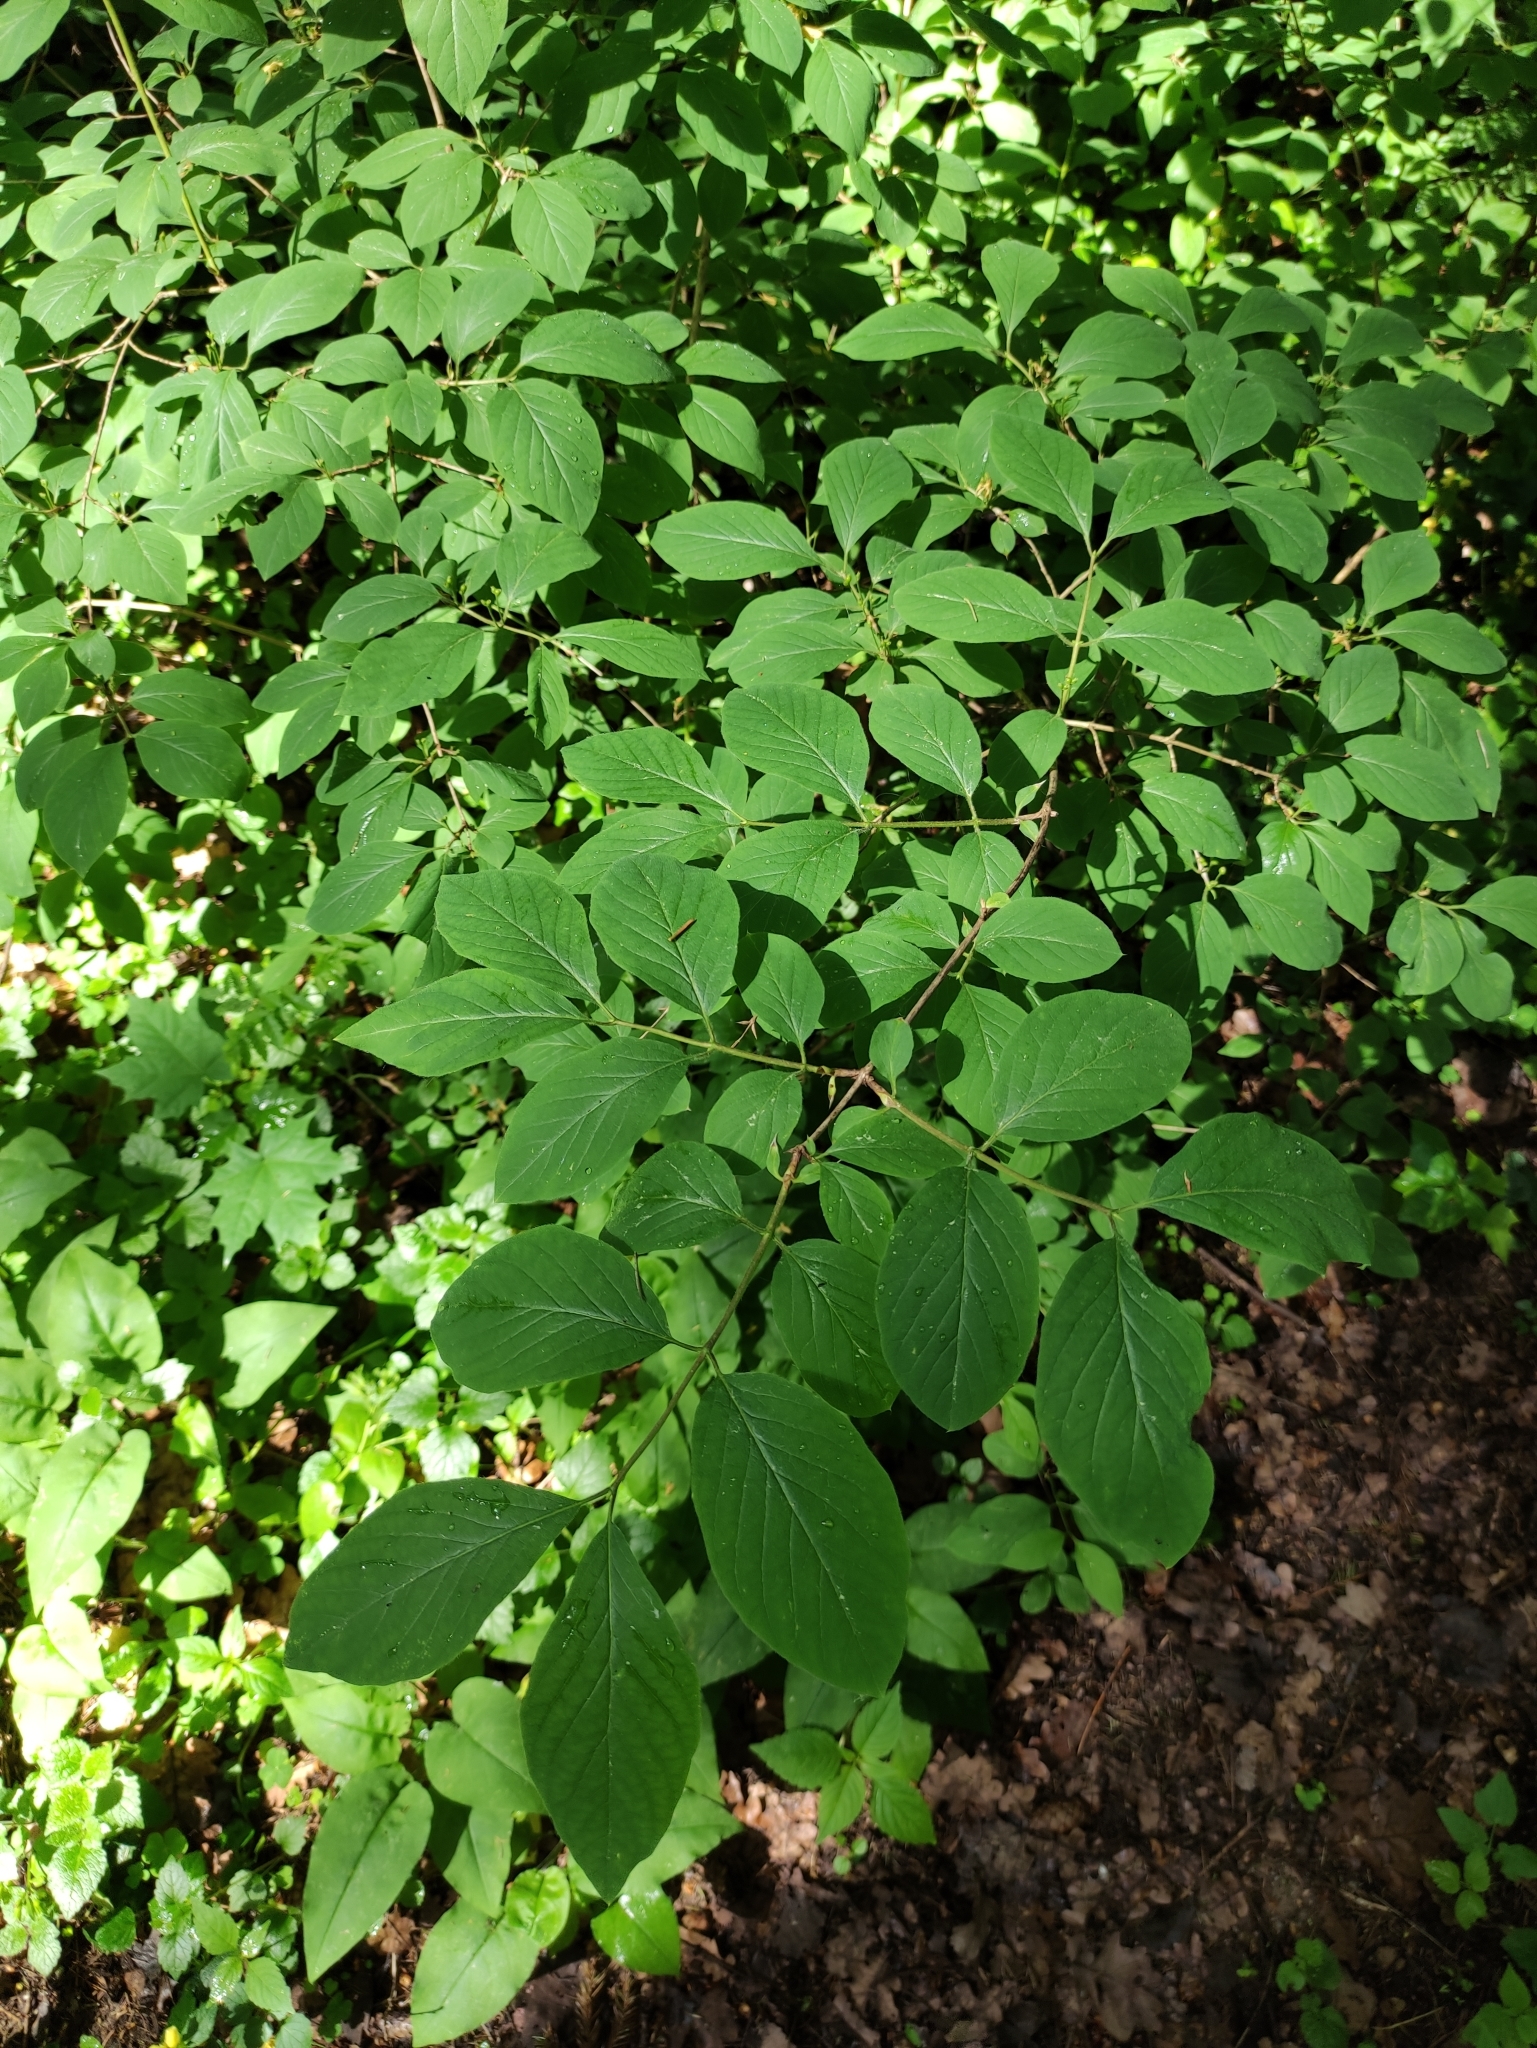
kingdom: Plantae
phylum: Tracheophyta
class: Magnoliopsida
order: Dipsacales
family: Caprifoliaceae
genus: Lonicera
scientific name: Lonicera xylosteum
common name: Fly honeysuckle
